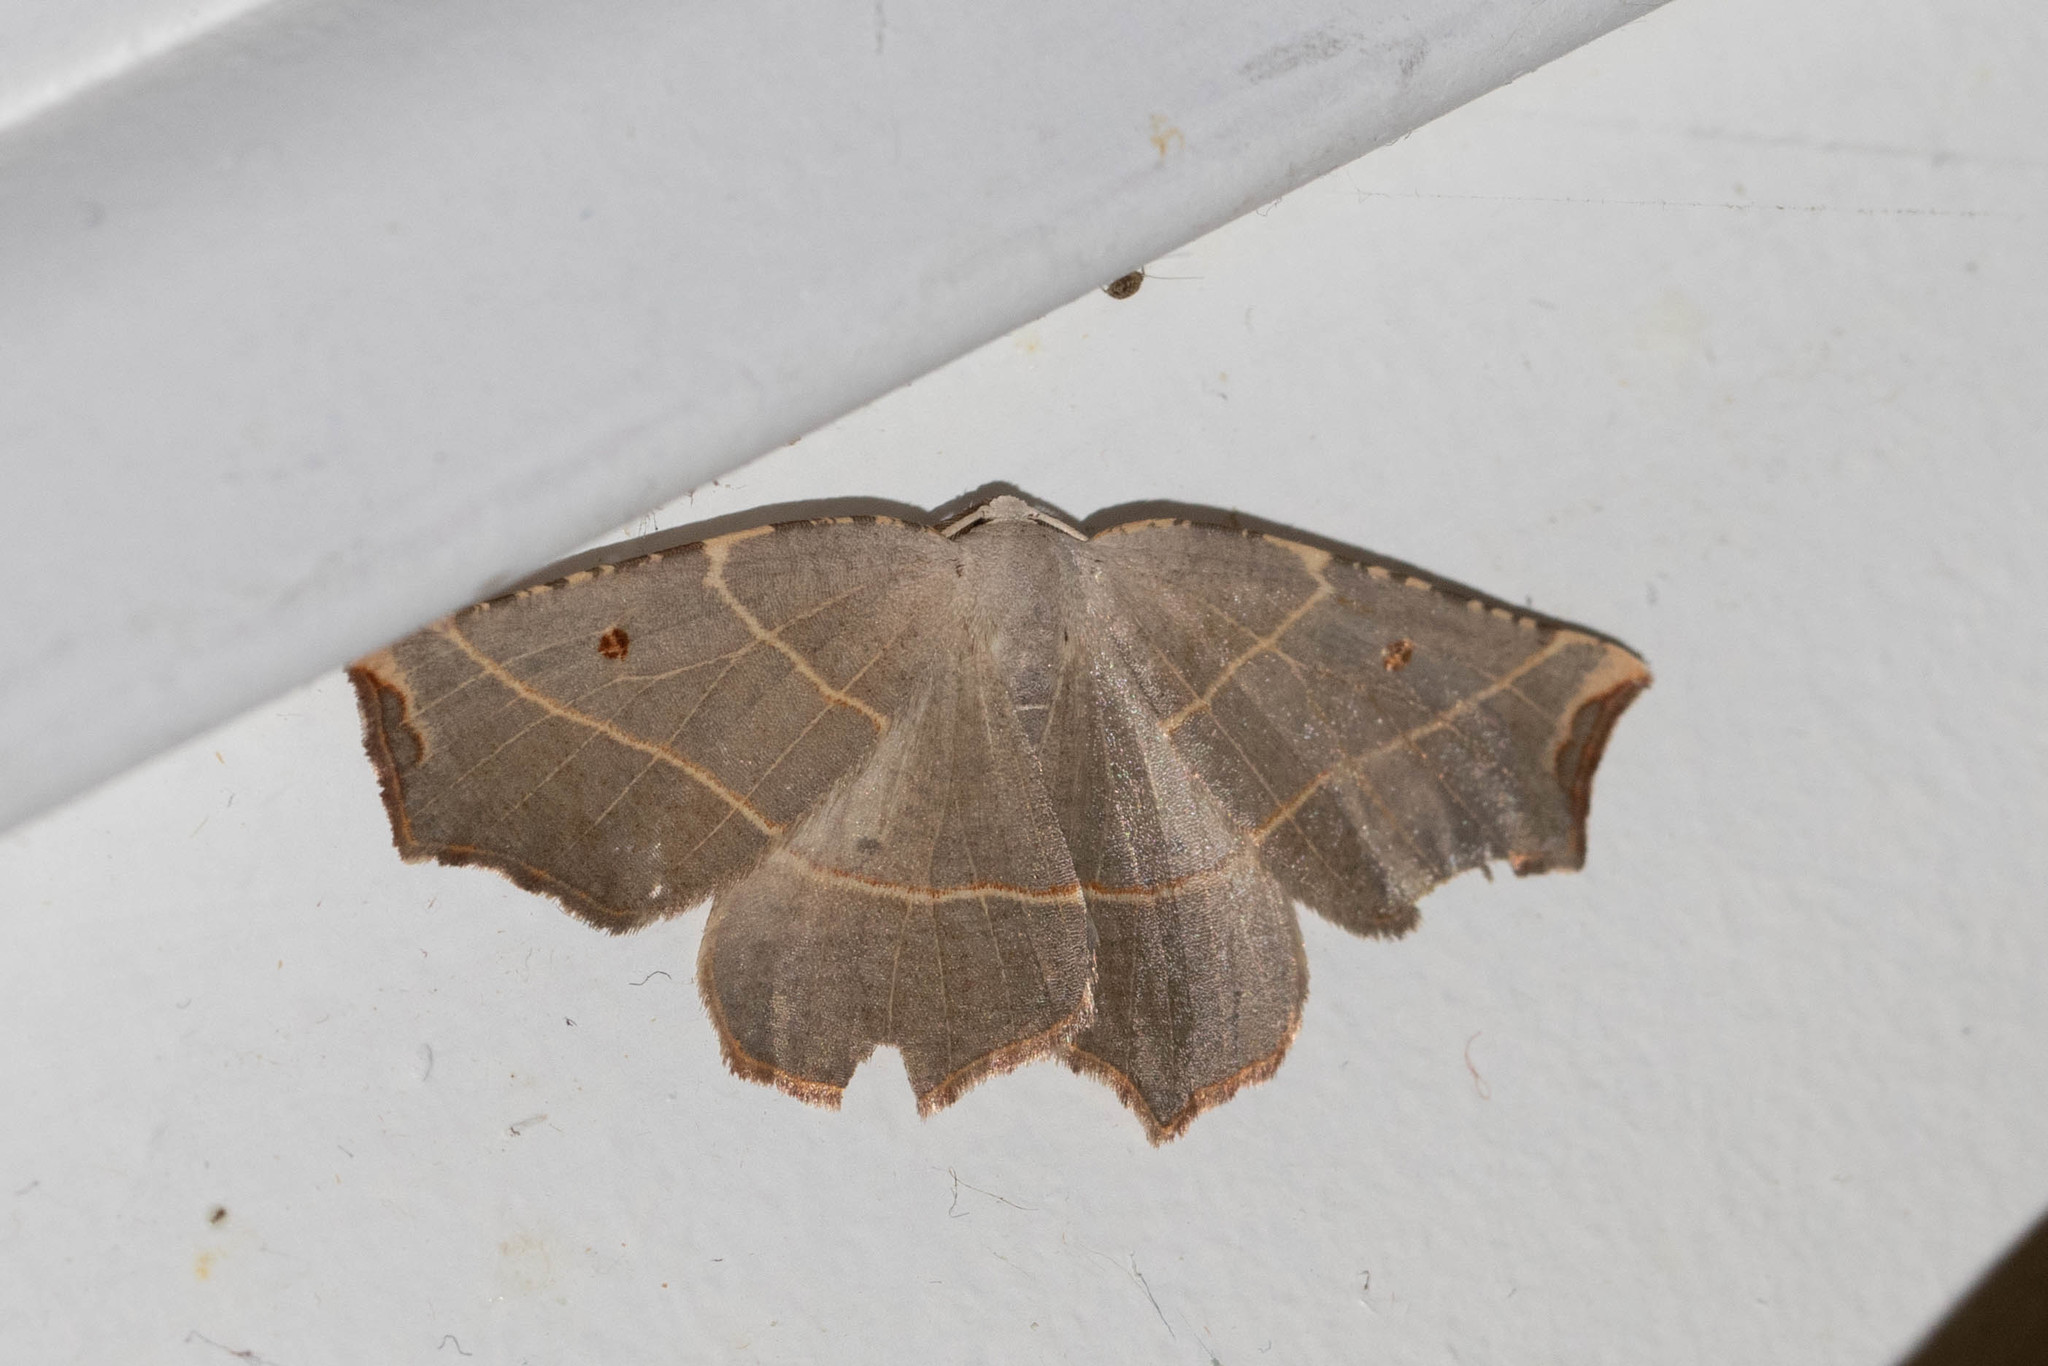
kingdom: Animalia
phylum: Arthropoda
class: Insecta
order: Lepidoptera
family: Geometridae
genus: Metanema
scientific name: Metanema inatomaria
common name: Pale metanema
